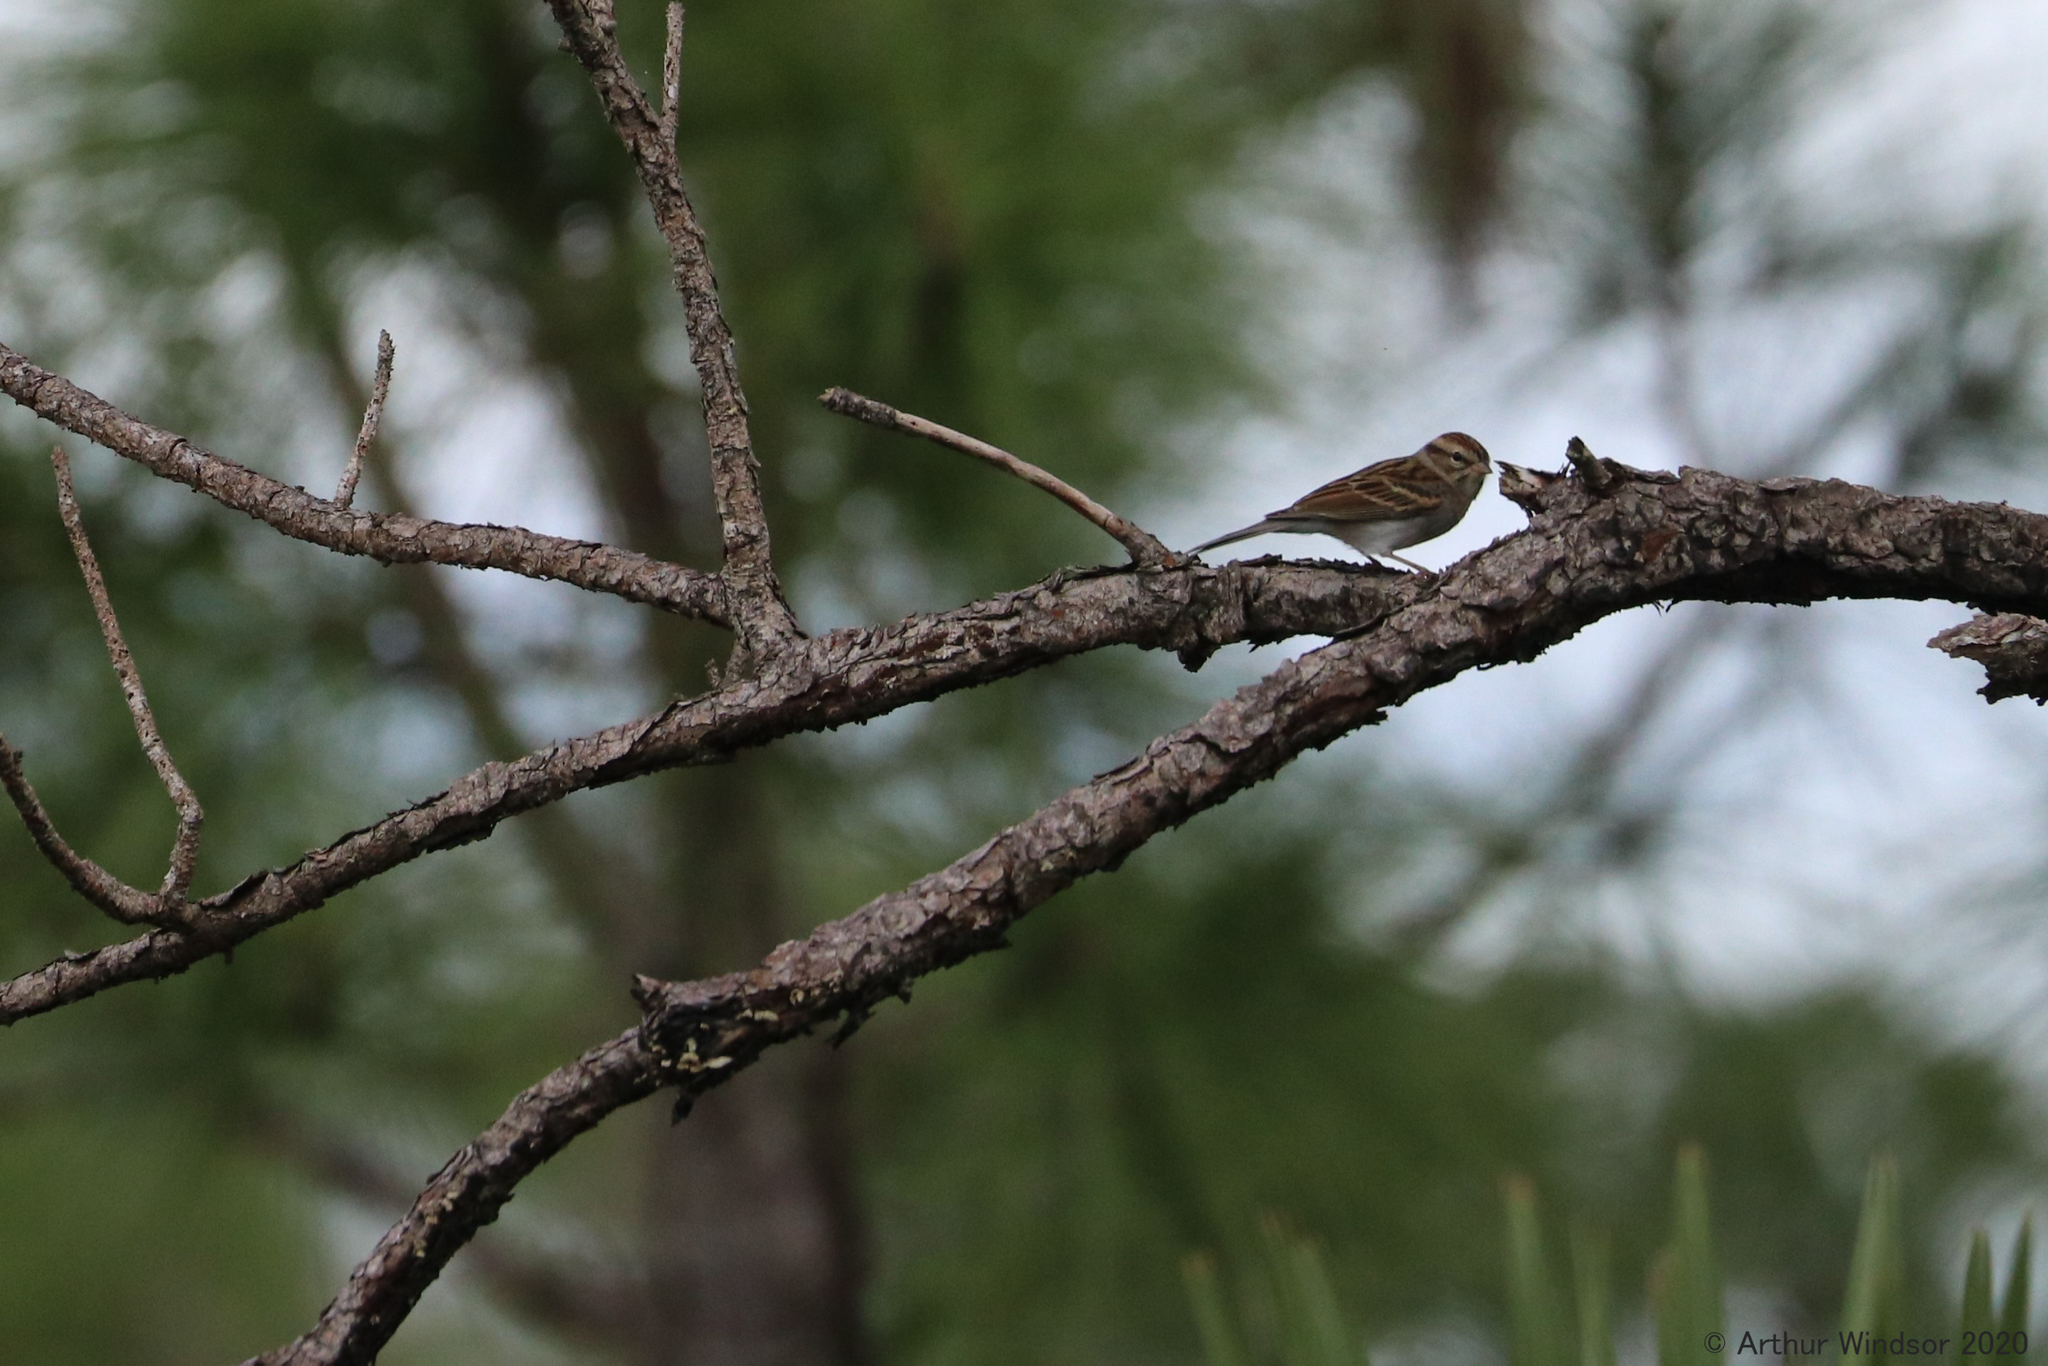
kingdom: Animalia
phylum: Chordata
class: Aves
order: Passeriformes
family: Passerellidae
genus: Spizella
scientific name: Spizella passerina
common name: Chipping sparrow
